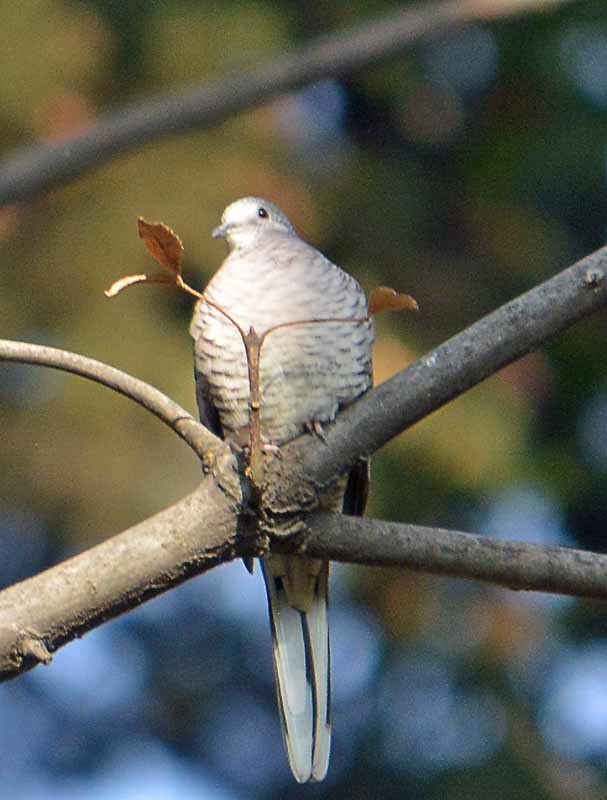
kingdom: Animalia
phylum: Chordata
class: Aves
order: Columbiformes
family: Columbidae
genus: Columbina
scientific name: Columbina inca
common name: Inca dove
